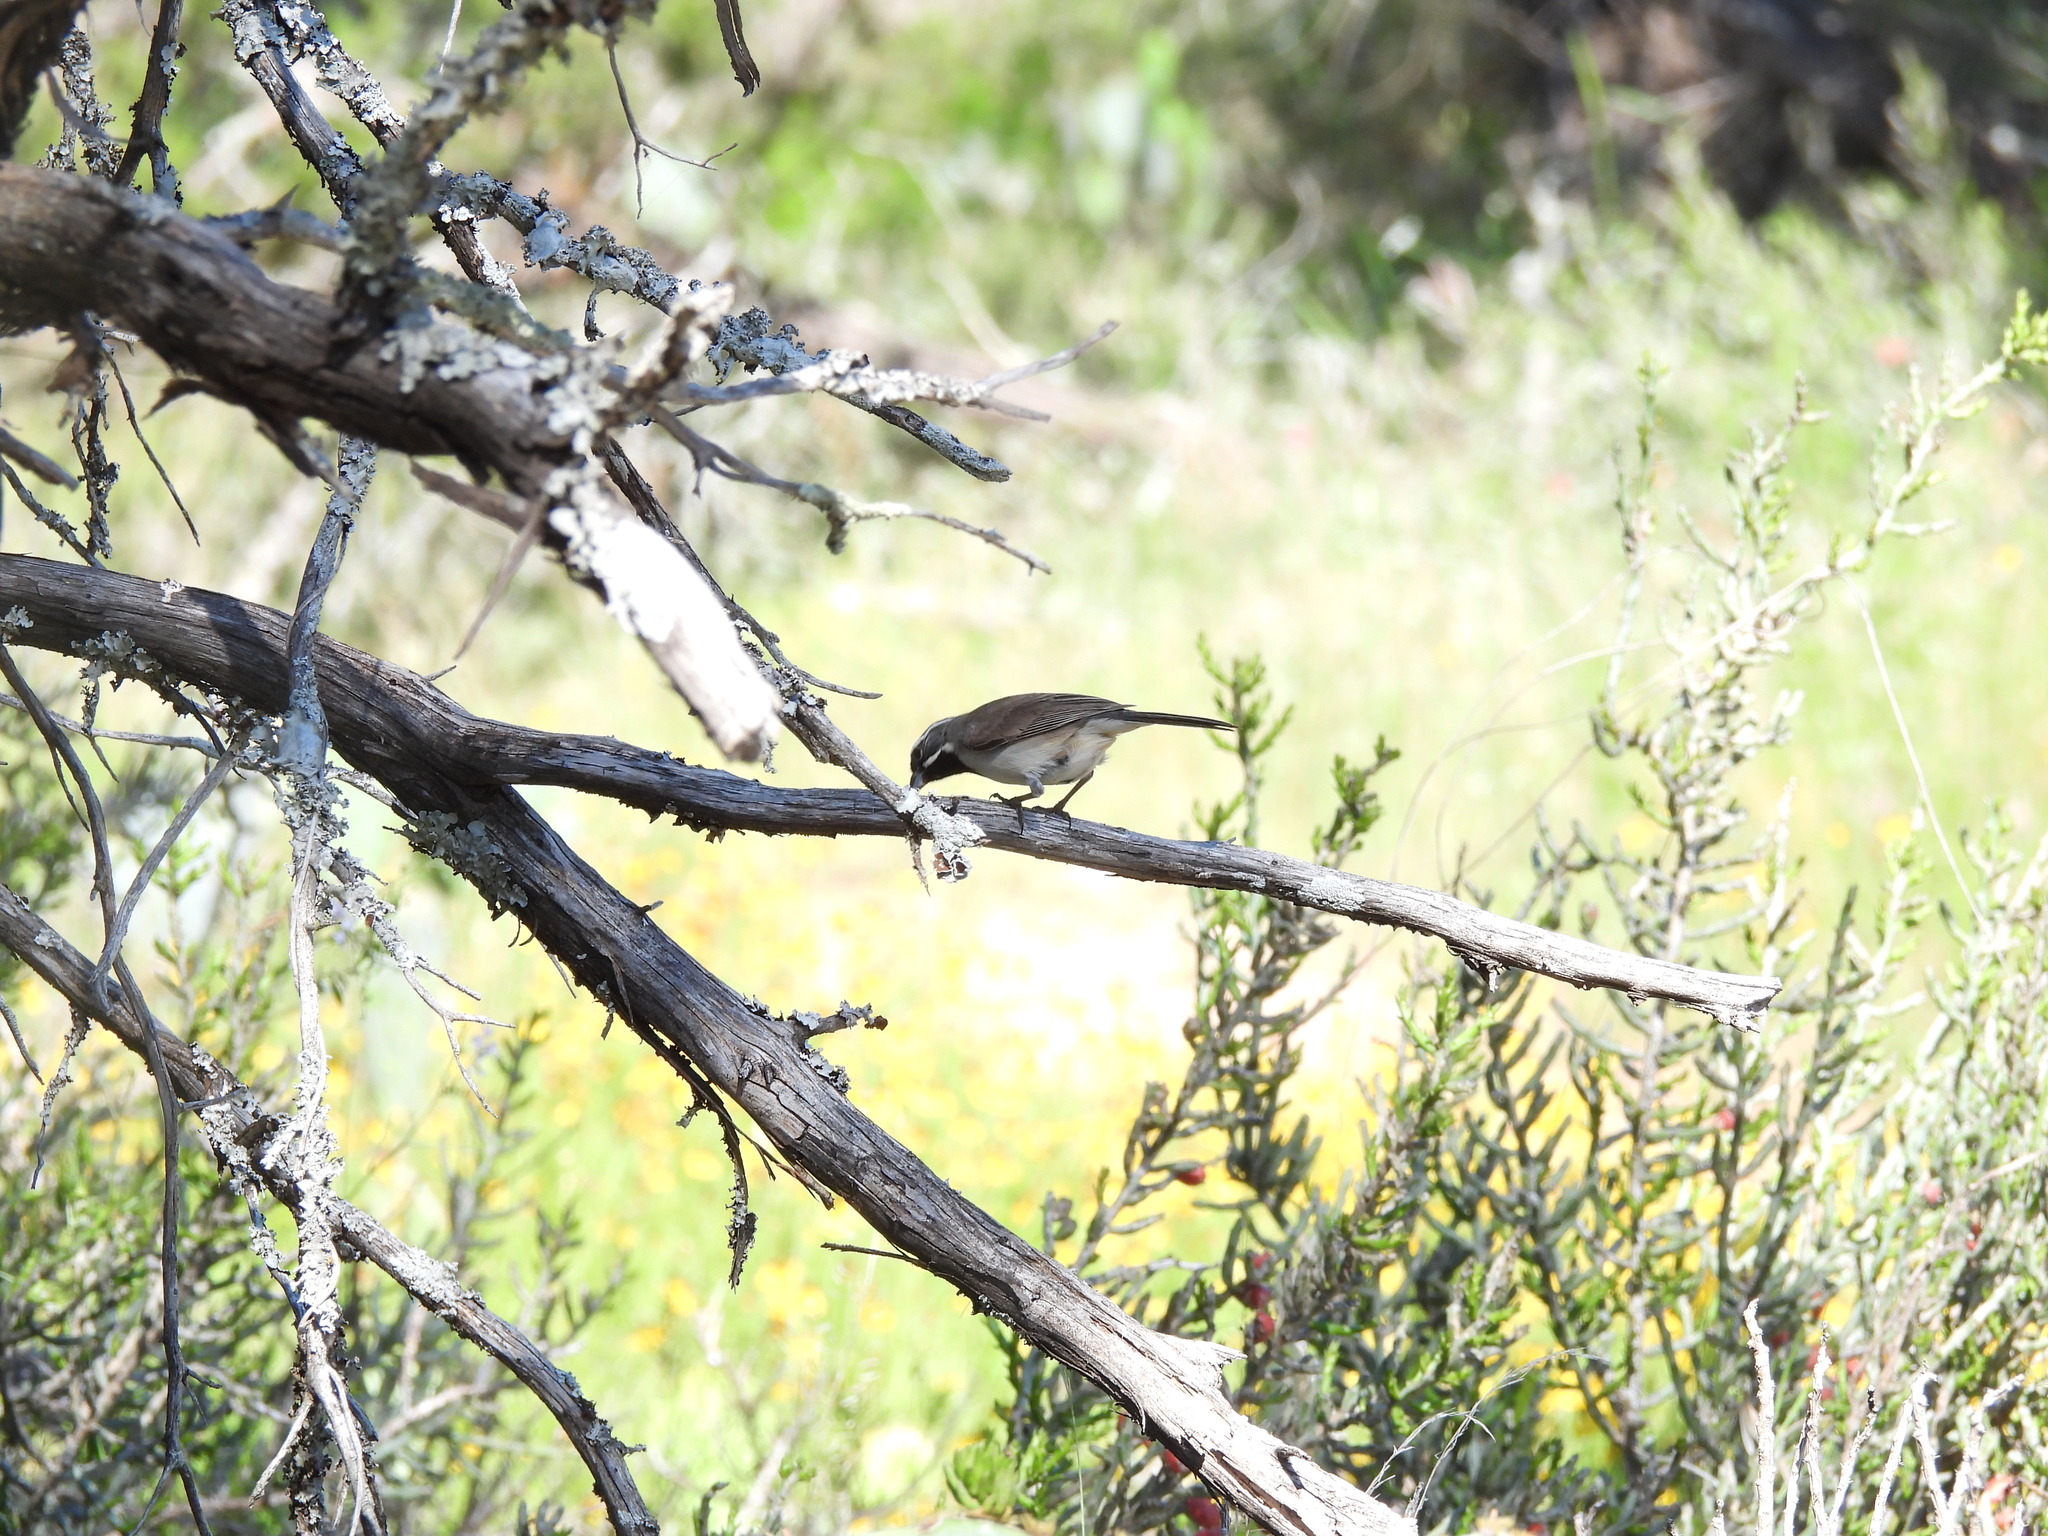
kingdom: Animalia
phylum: Chordata
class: Aves
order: Passeriformes
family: Passerellidae
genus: Amphispiza
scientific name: Amphispiza bilineata
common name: Black-throated sparrow
